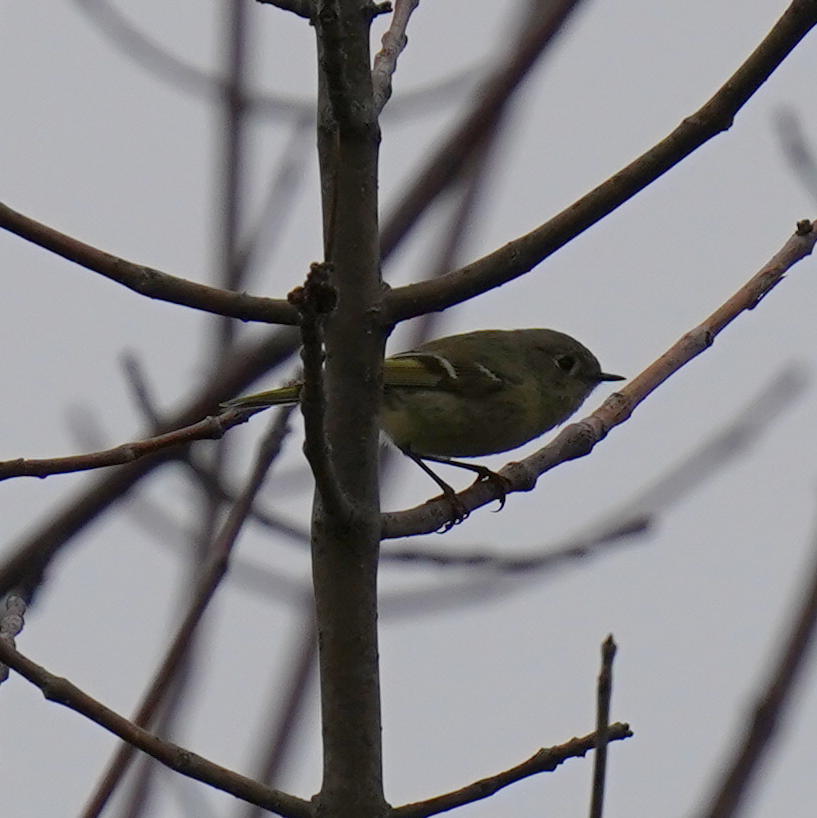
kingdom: Animalia
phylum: Chordata
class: Aves
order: Passeriformes
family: Regulidae
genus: Regulus
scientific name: Regulus calendula
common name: Ruby-crowned kinglet
